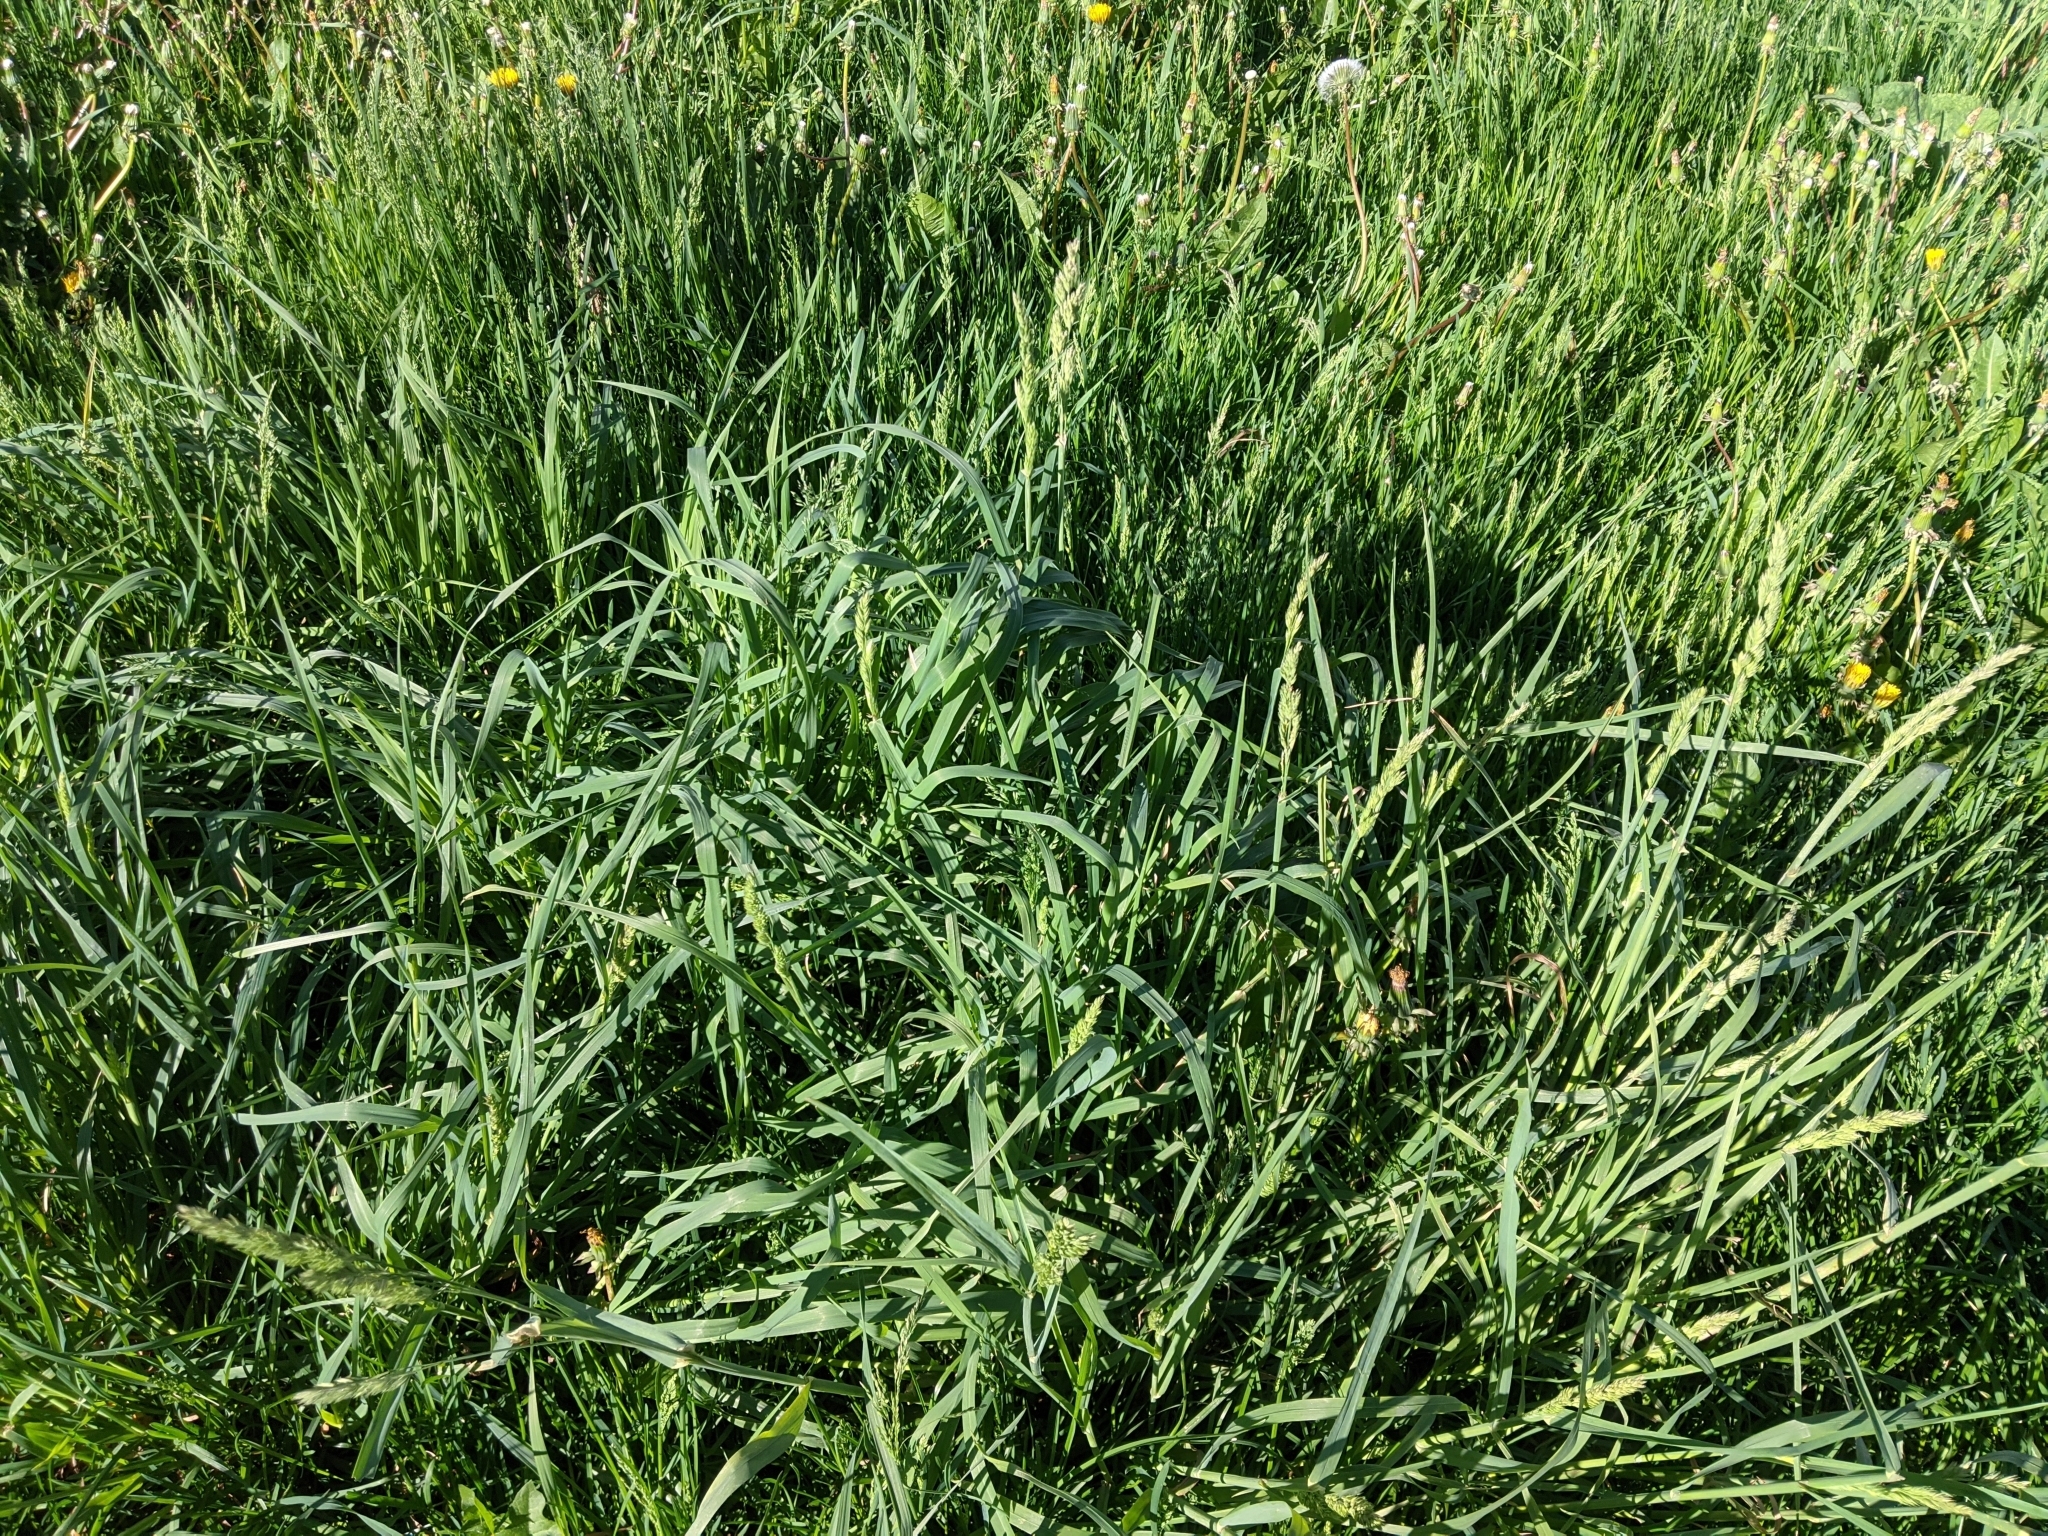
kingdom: Plantae
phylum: Tracheophyta
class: Liliopsida
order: Poales
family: Poaceae
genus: Dactylis
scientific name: Dactylis glomerata
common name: Orchardgrass
